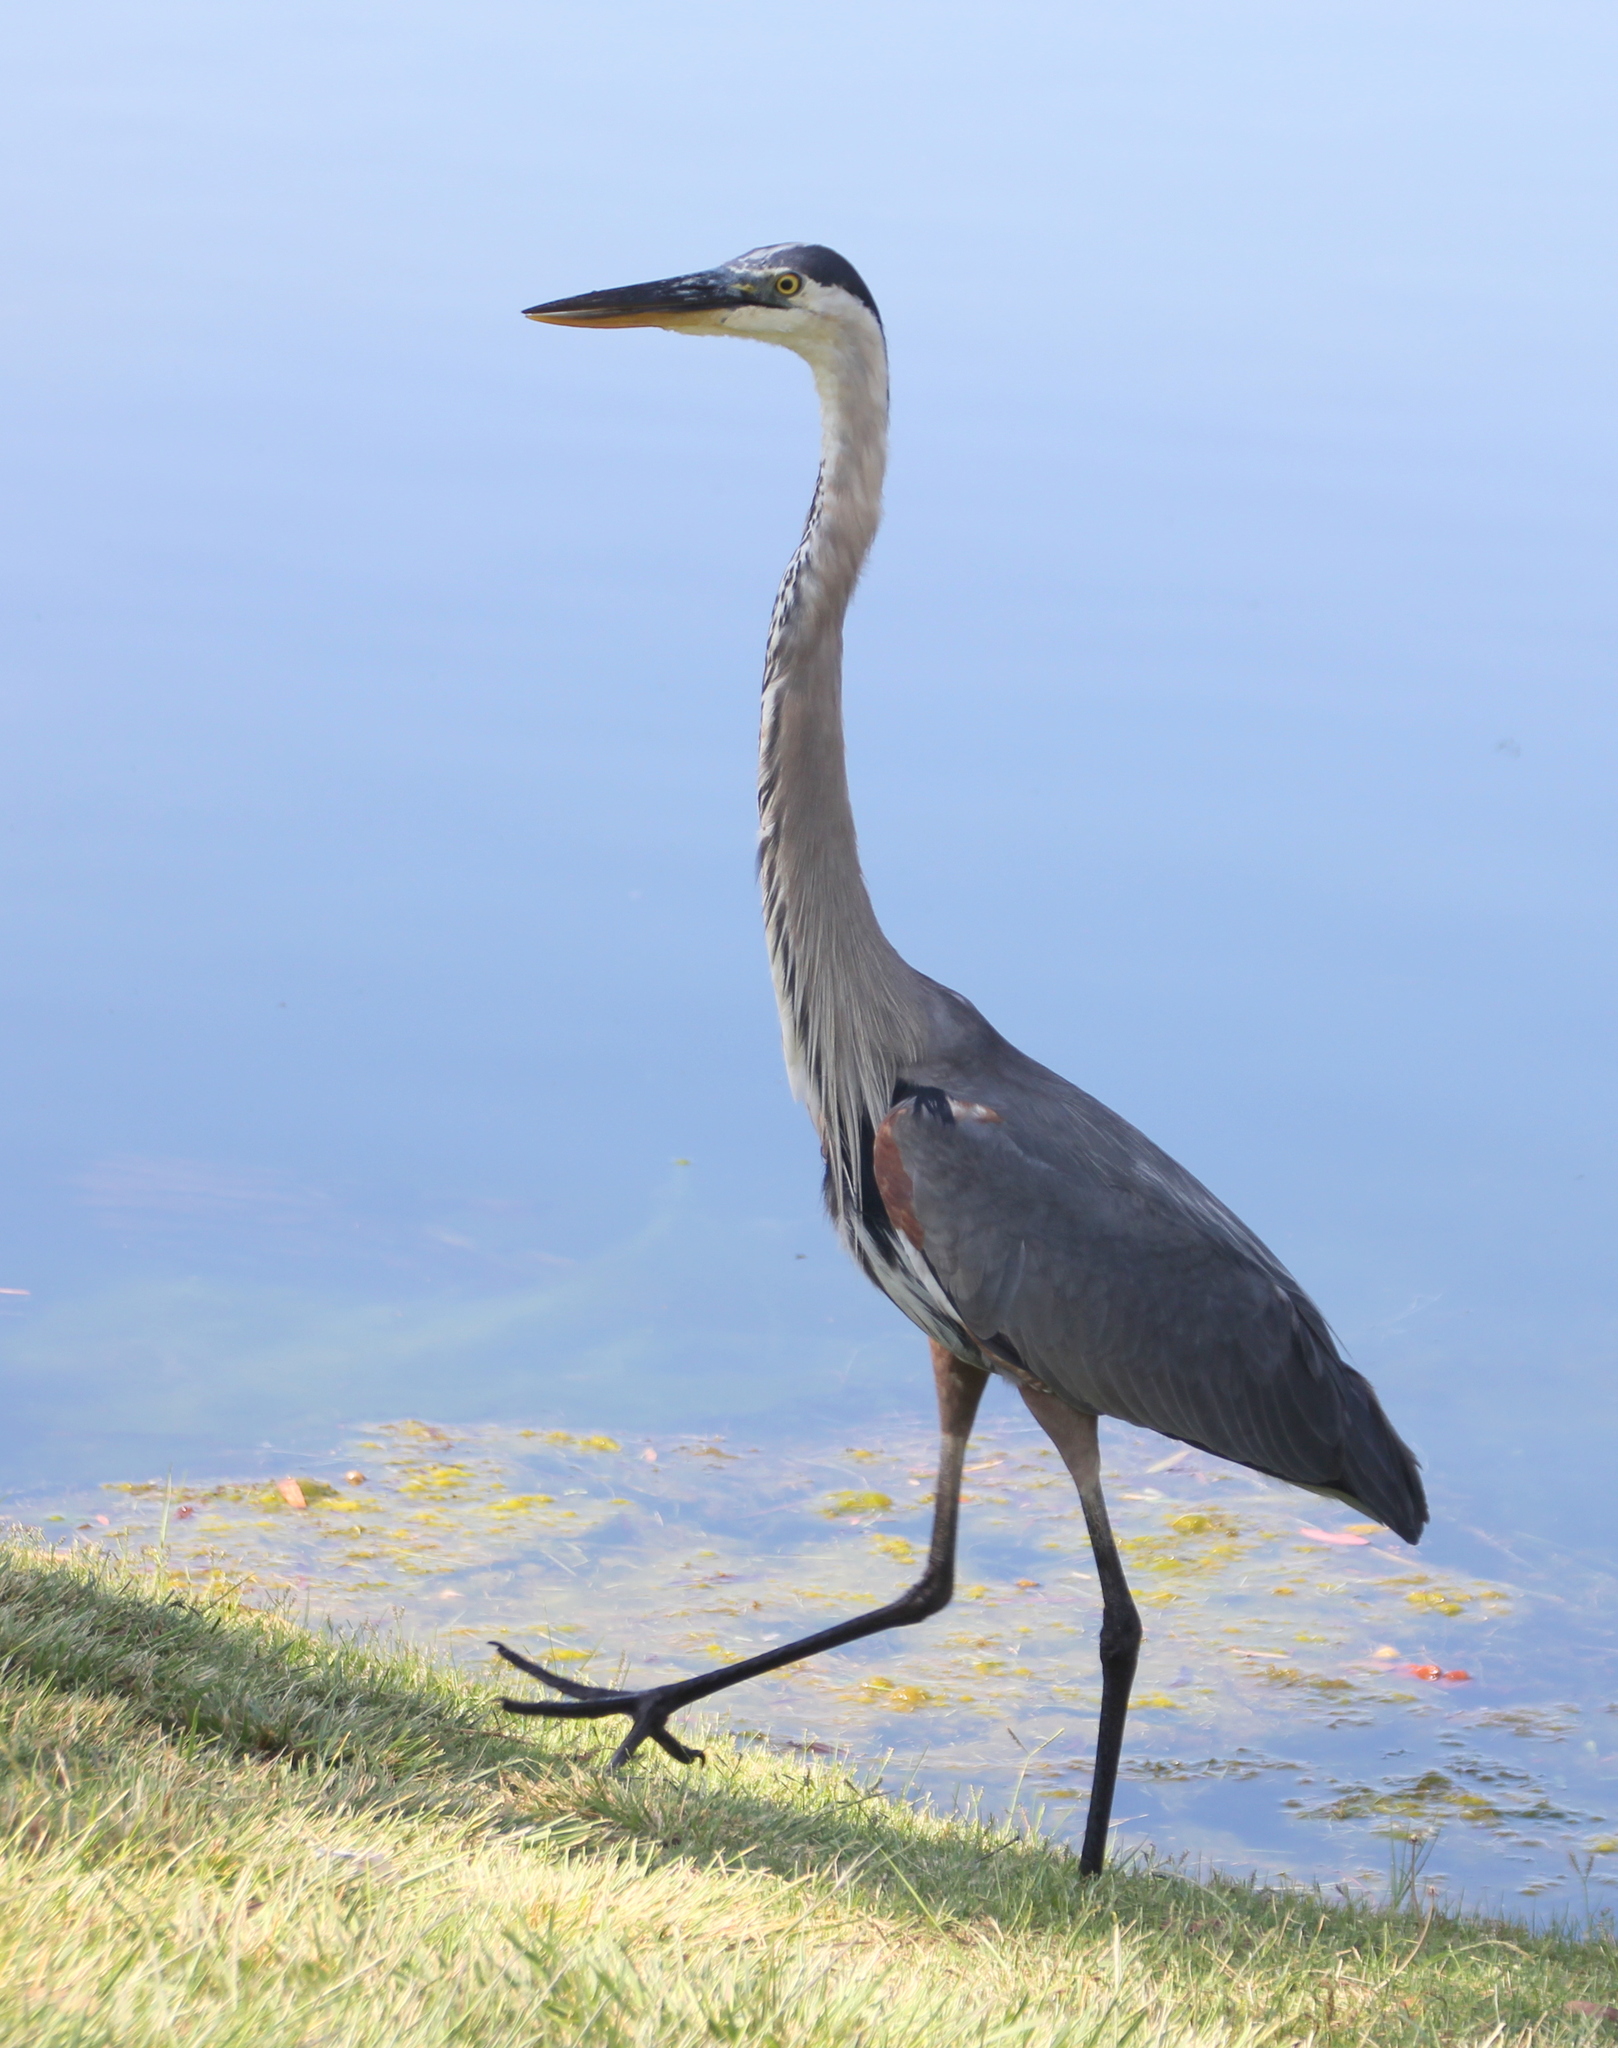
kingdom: Animalia
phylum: Chordata
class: Aves
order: Pelecaniformes
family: Ardeidae
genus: Ardea
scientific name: Ardea herodias
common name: Great blue heron
